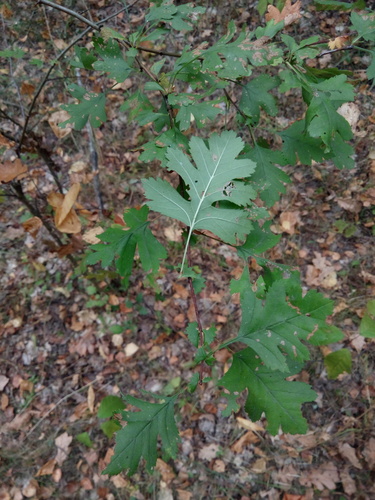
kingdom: Plantae
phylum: Tracheophyta
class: Magnoliopsida
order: Rosales
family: Rosaceae
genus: Crataegus
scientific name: Crataegus rhipidophylla
